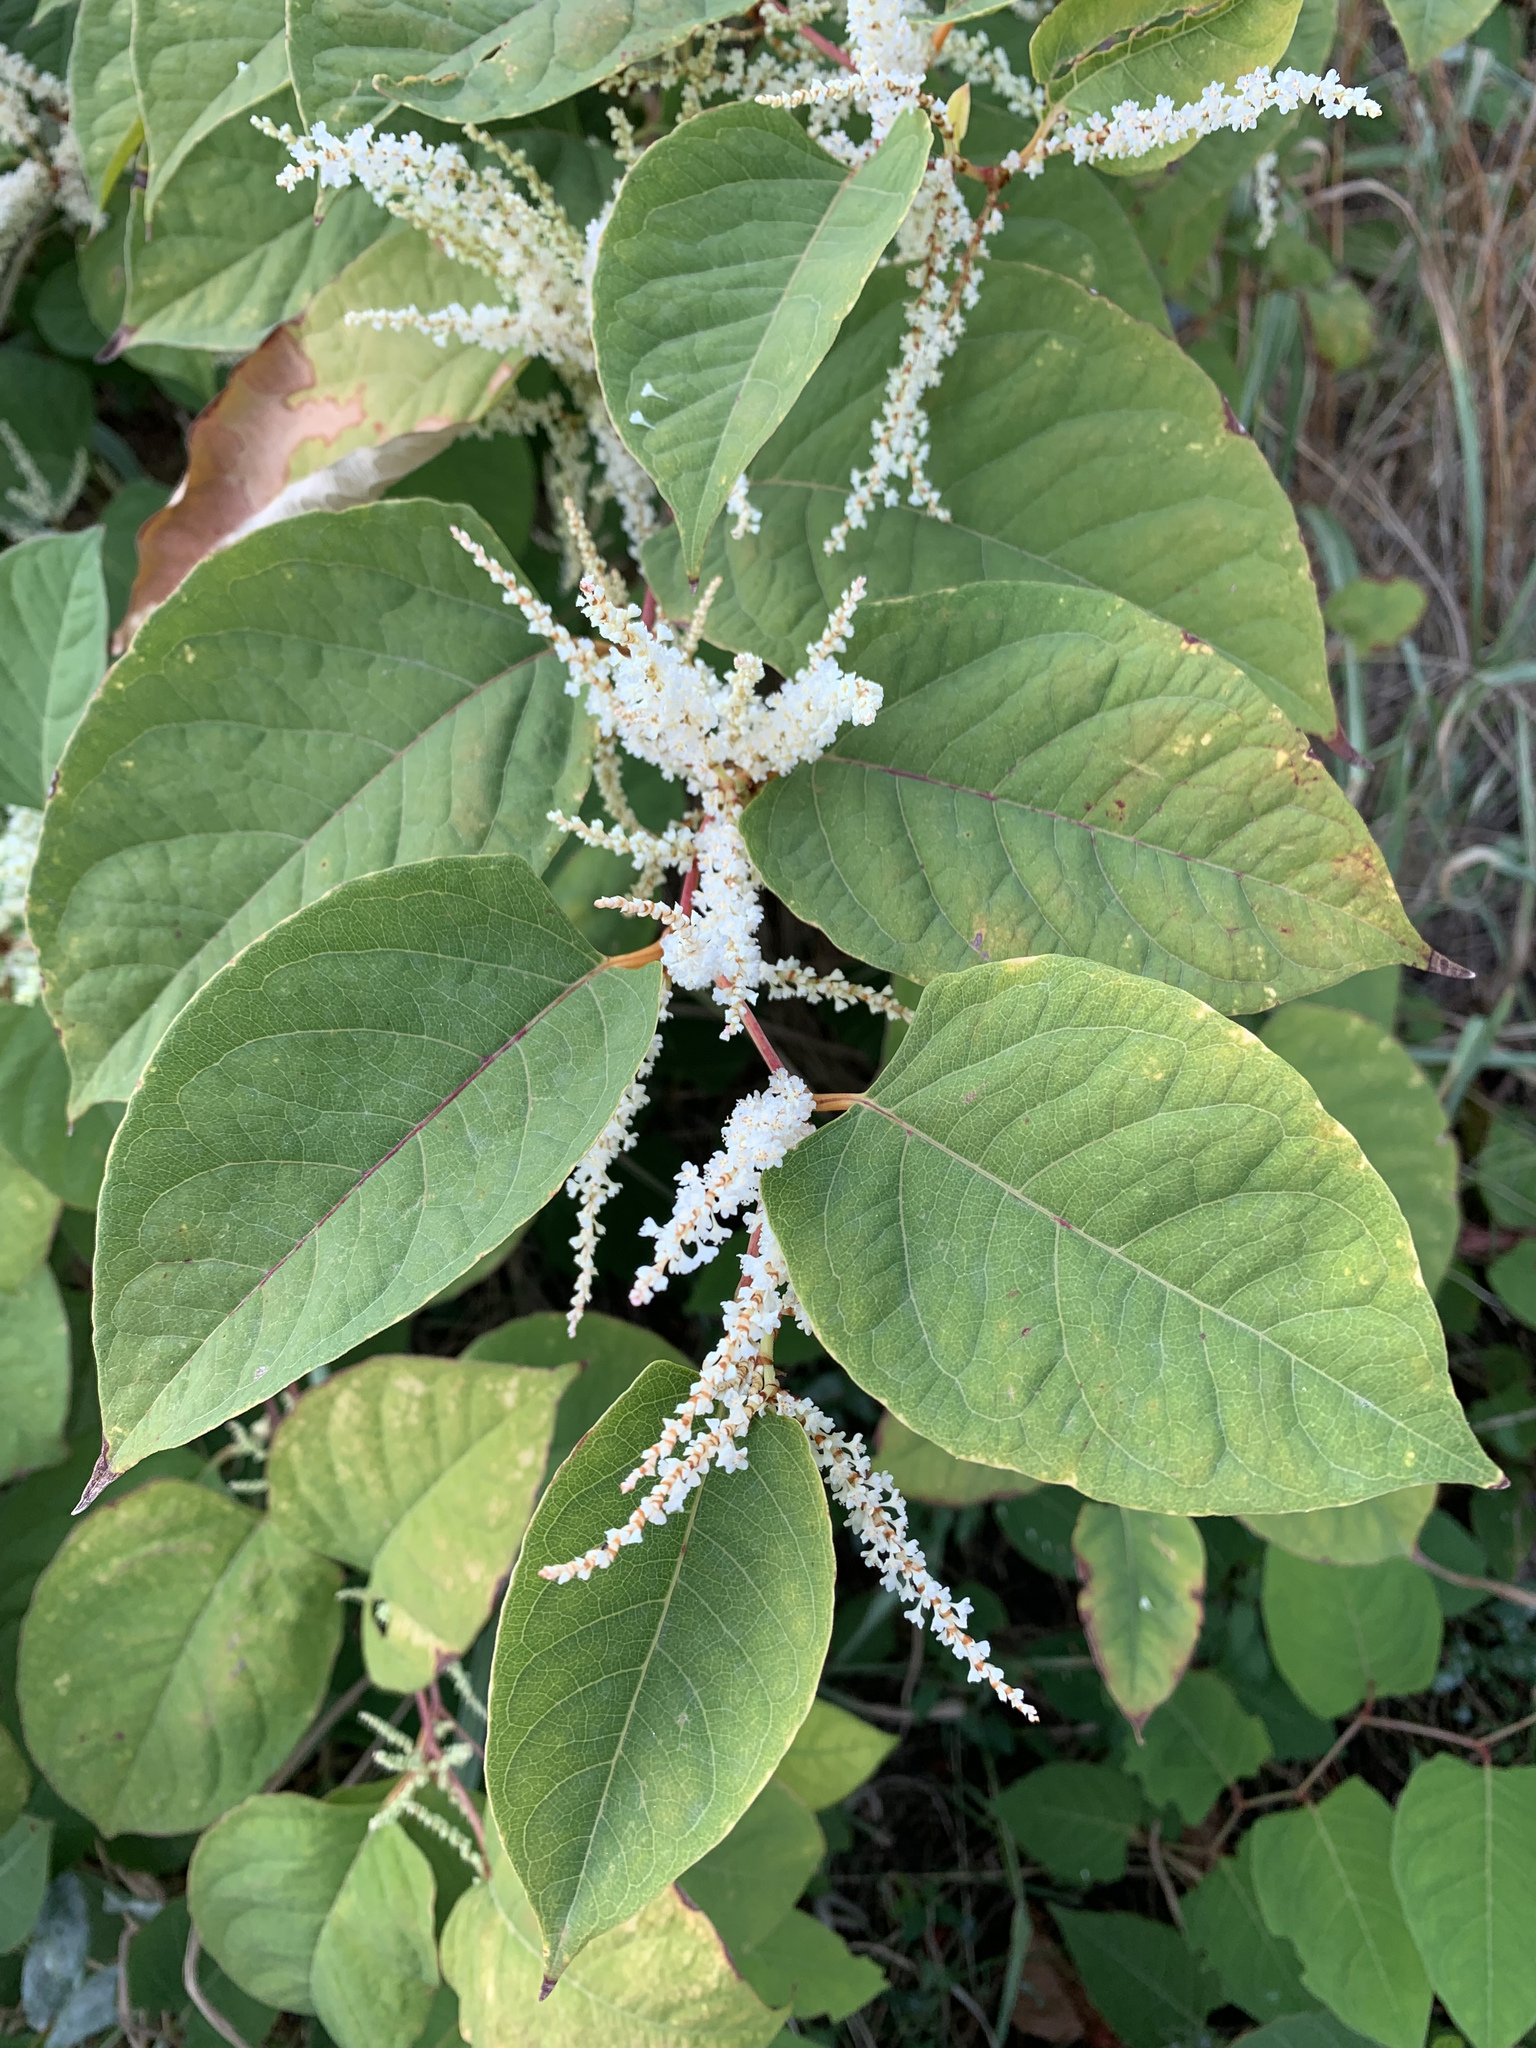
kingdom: Plantae
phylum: Tracheophyta
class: Magnoliopsida
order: Caryophyllales
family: Polygonaceae
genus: Reynoutria
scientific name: Reynoutria japonica
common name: Japanese knotweed
